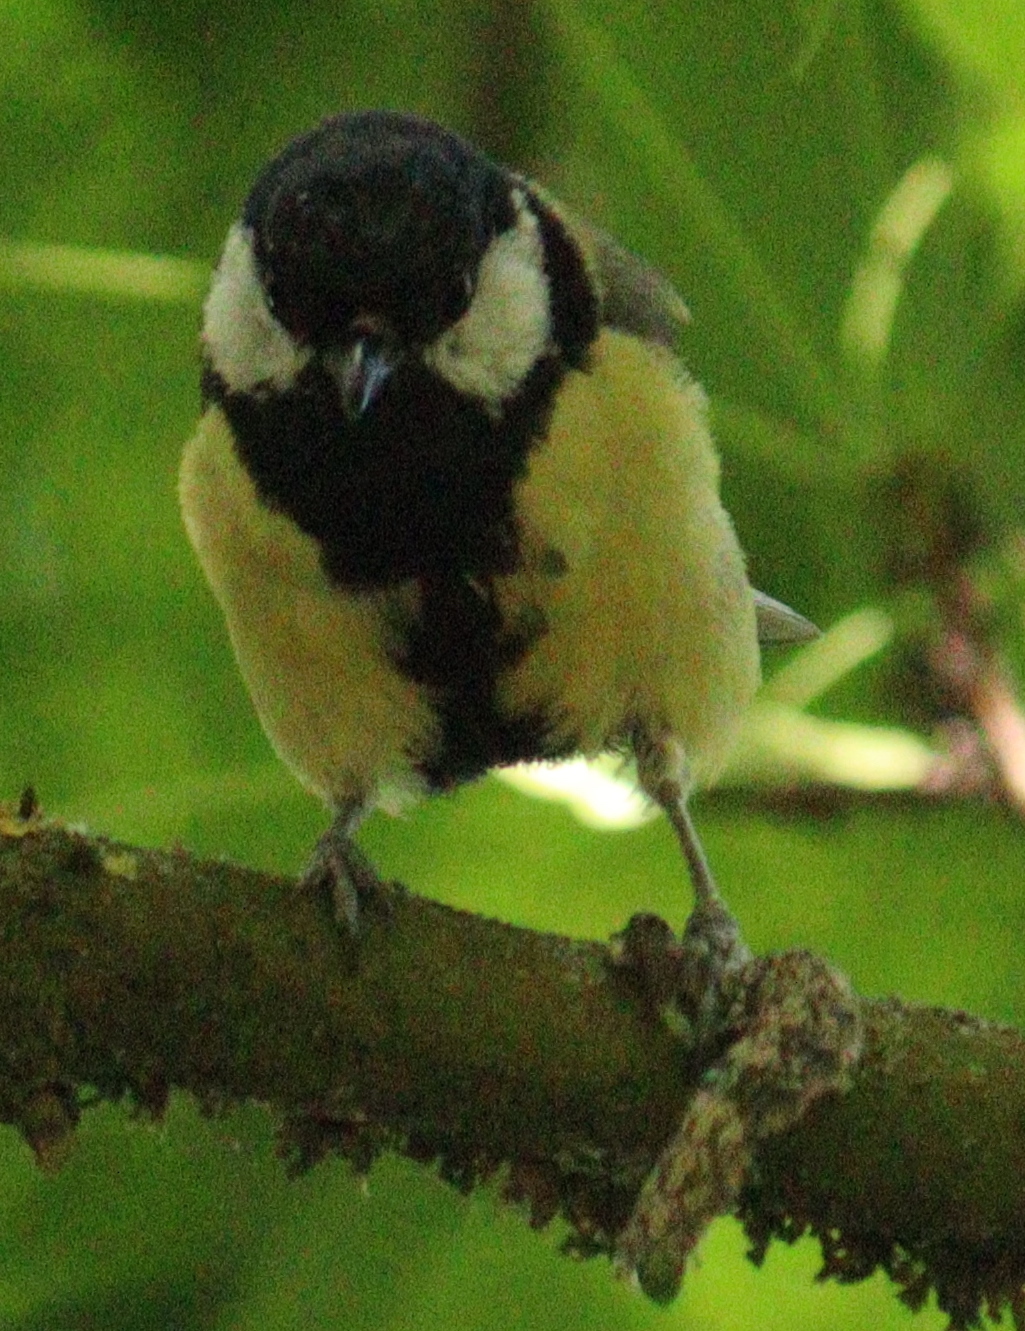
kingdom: Animalia
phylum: Chordata
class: Aves
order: Passeriformes
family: Paridae
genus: Parus
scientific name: Parus major
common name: Great tit
